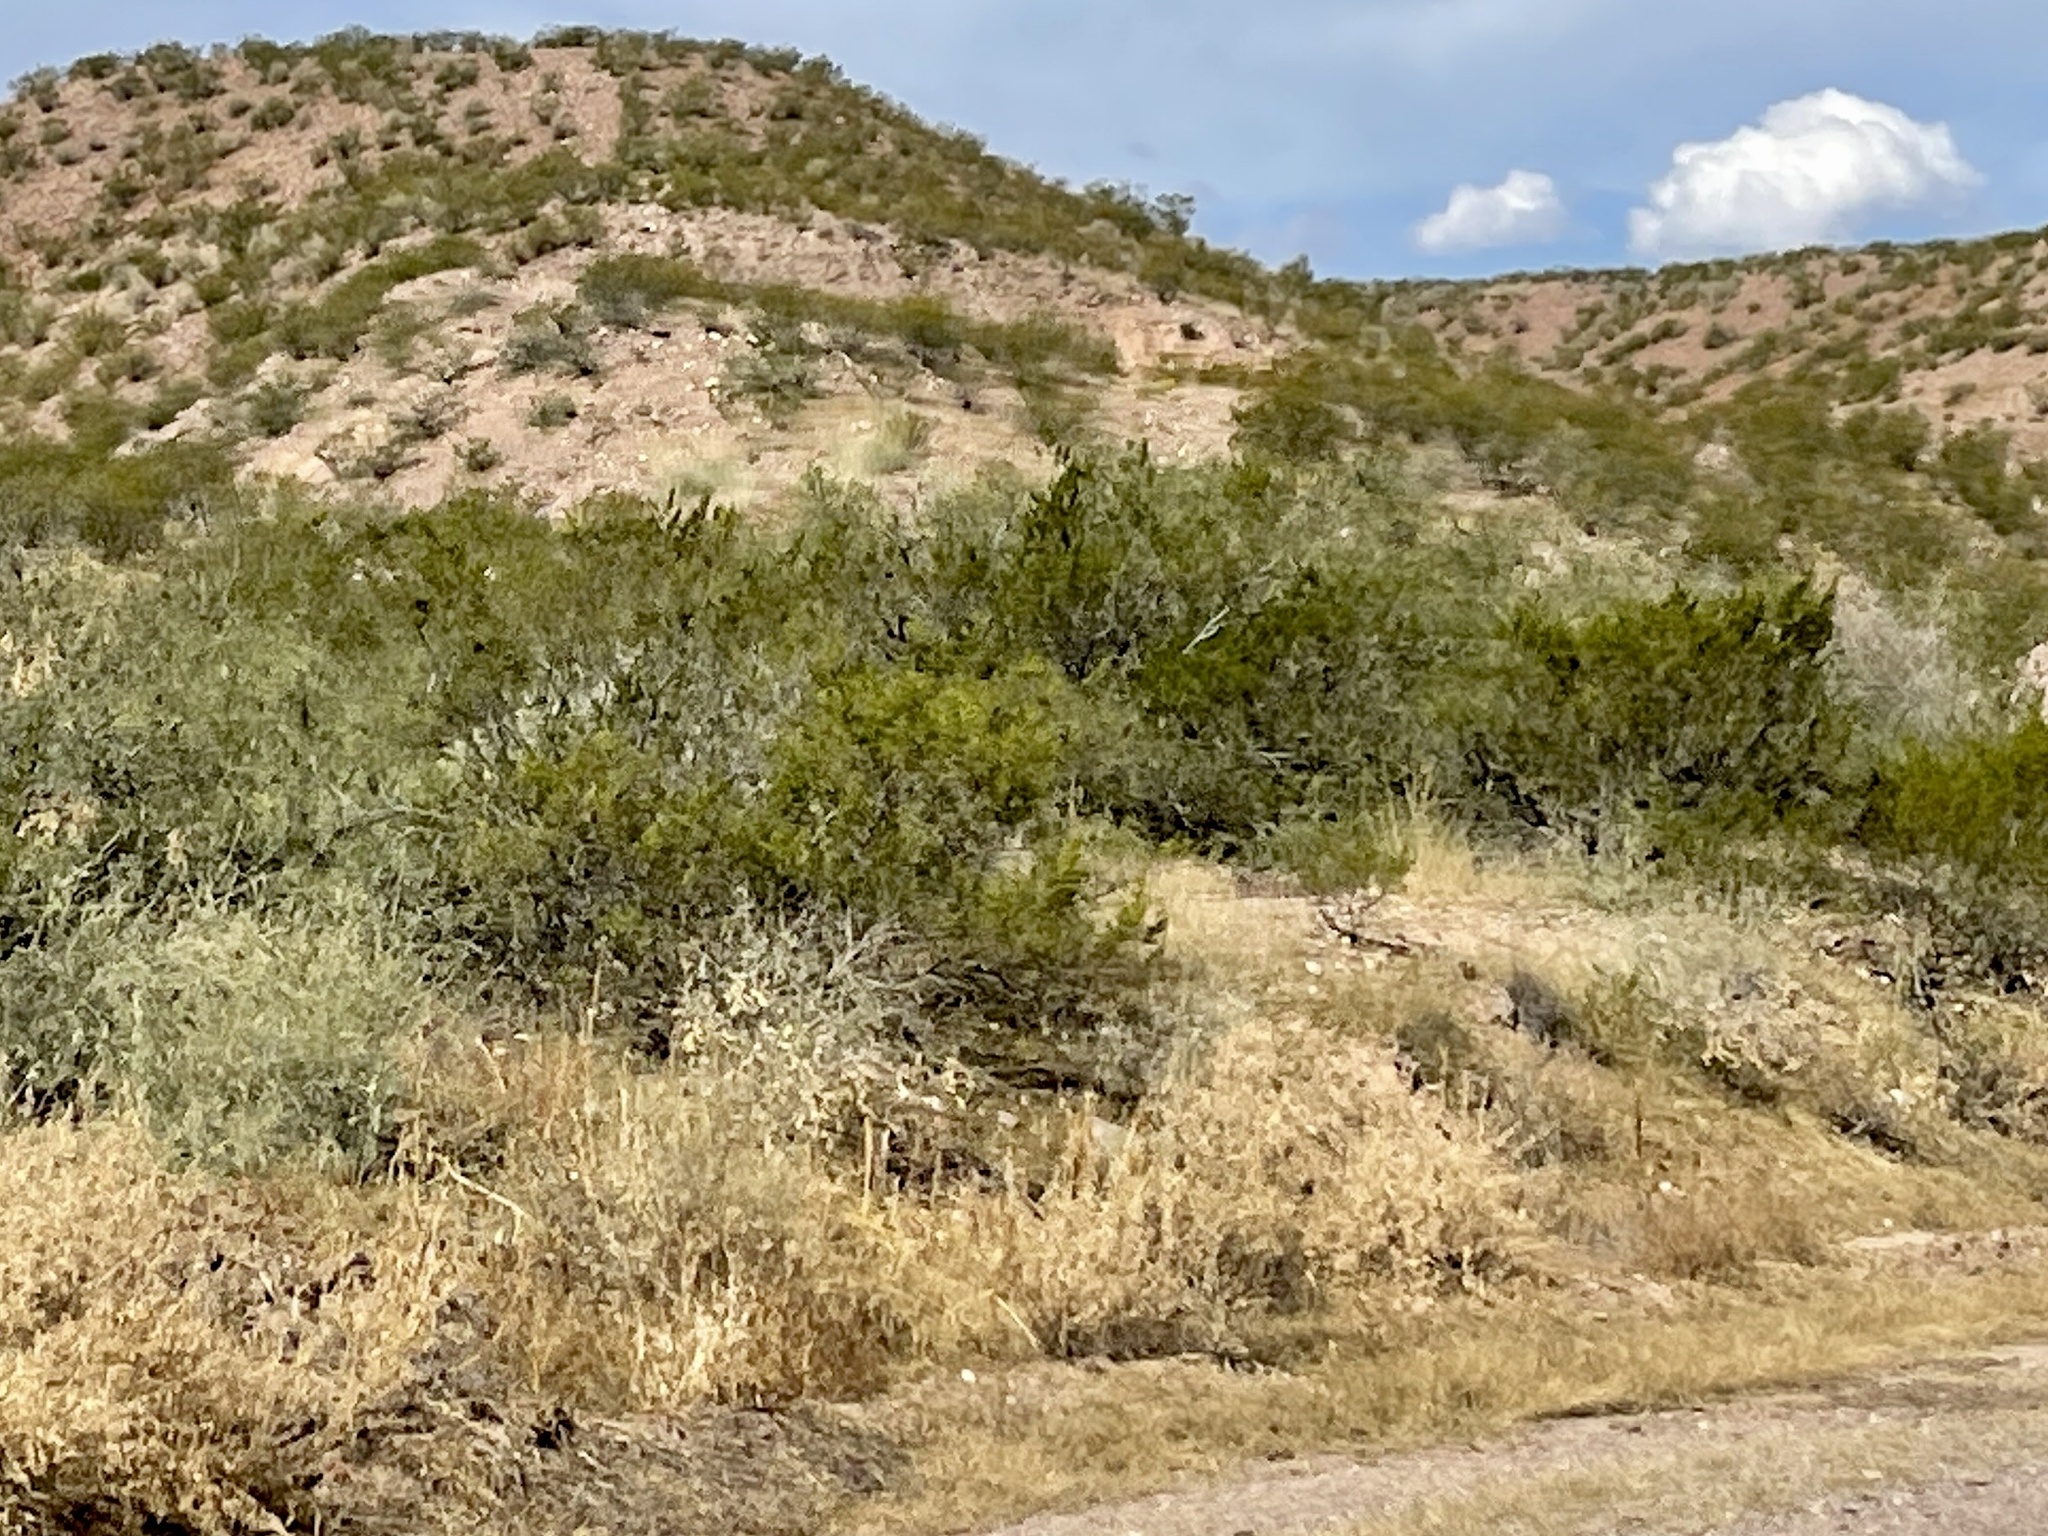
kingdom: Plantae
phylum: Tracheophyta
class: Magnoliopsida
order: Zygophyllales
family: Zygophyllaceae
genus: Larrea
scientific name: Larrea tridentata
